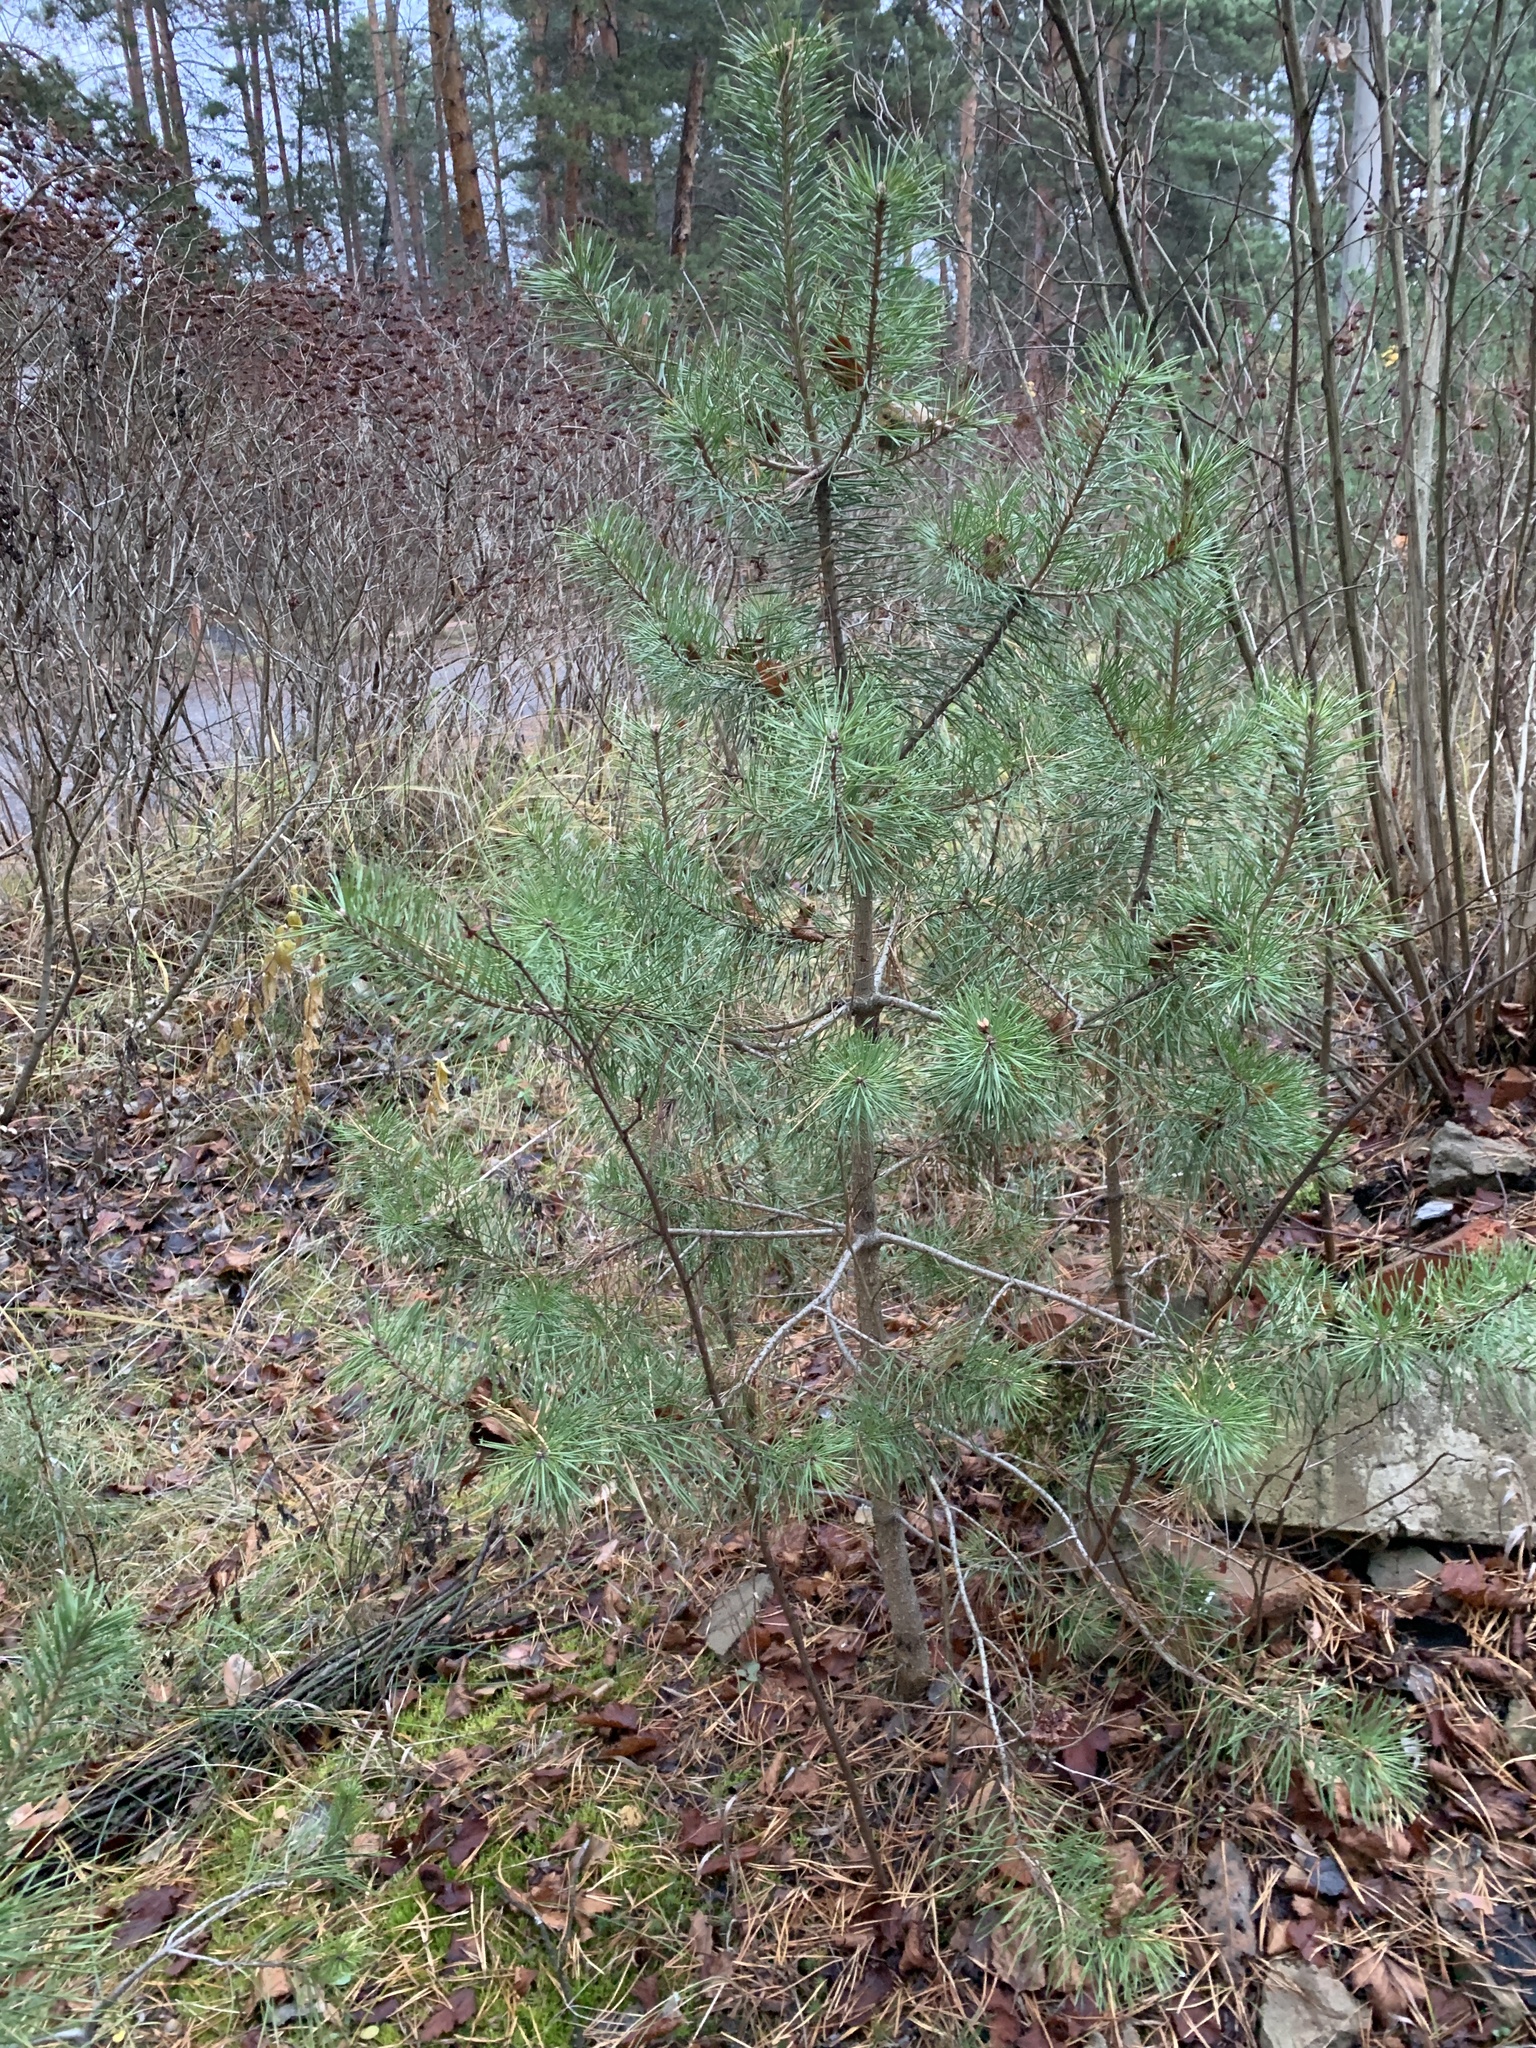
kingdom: Plantae
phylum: Tracheophyta
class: Pinopsida
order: Pinales
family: Pinaceae
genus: Pinus
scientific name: Pinus sylvestris
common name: Scots pine
